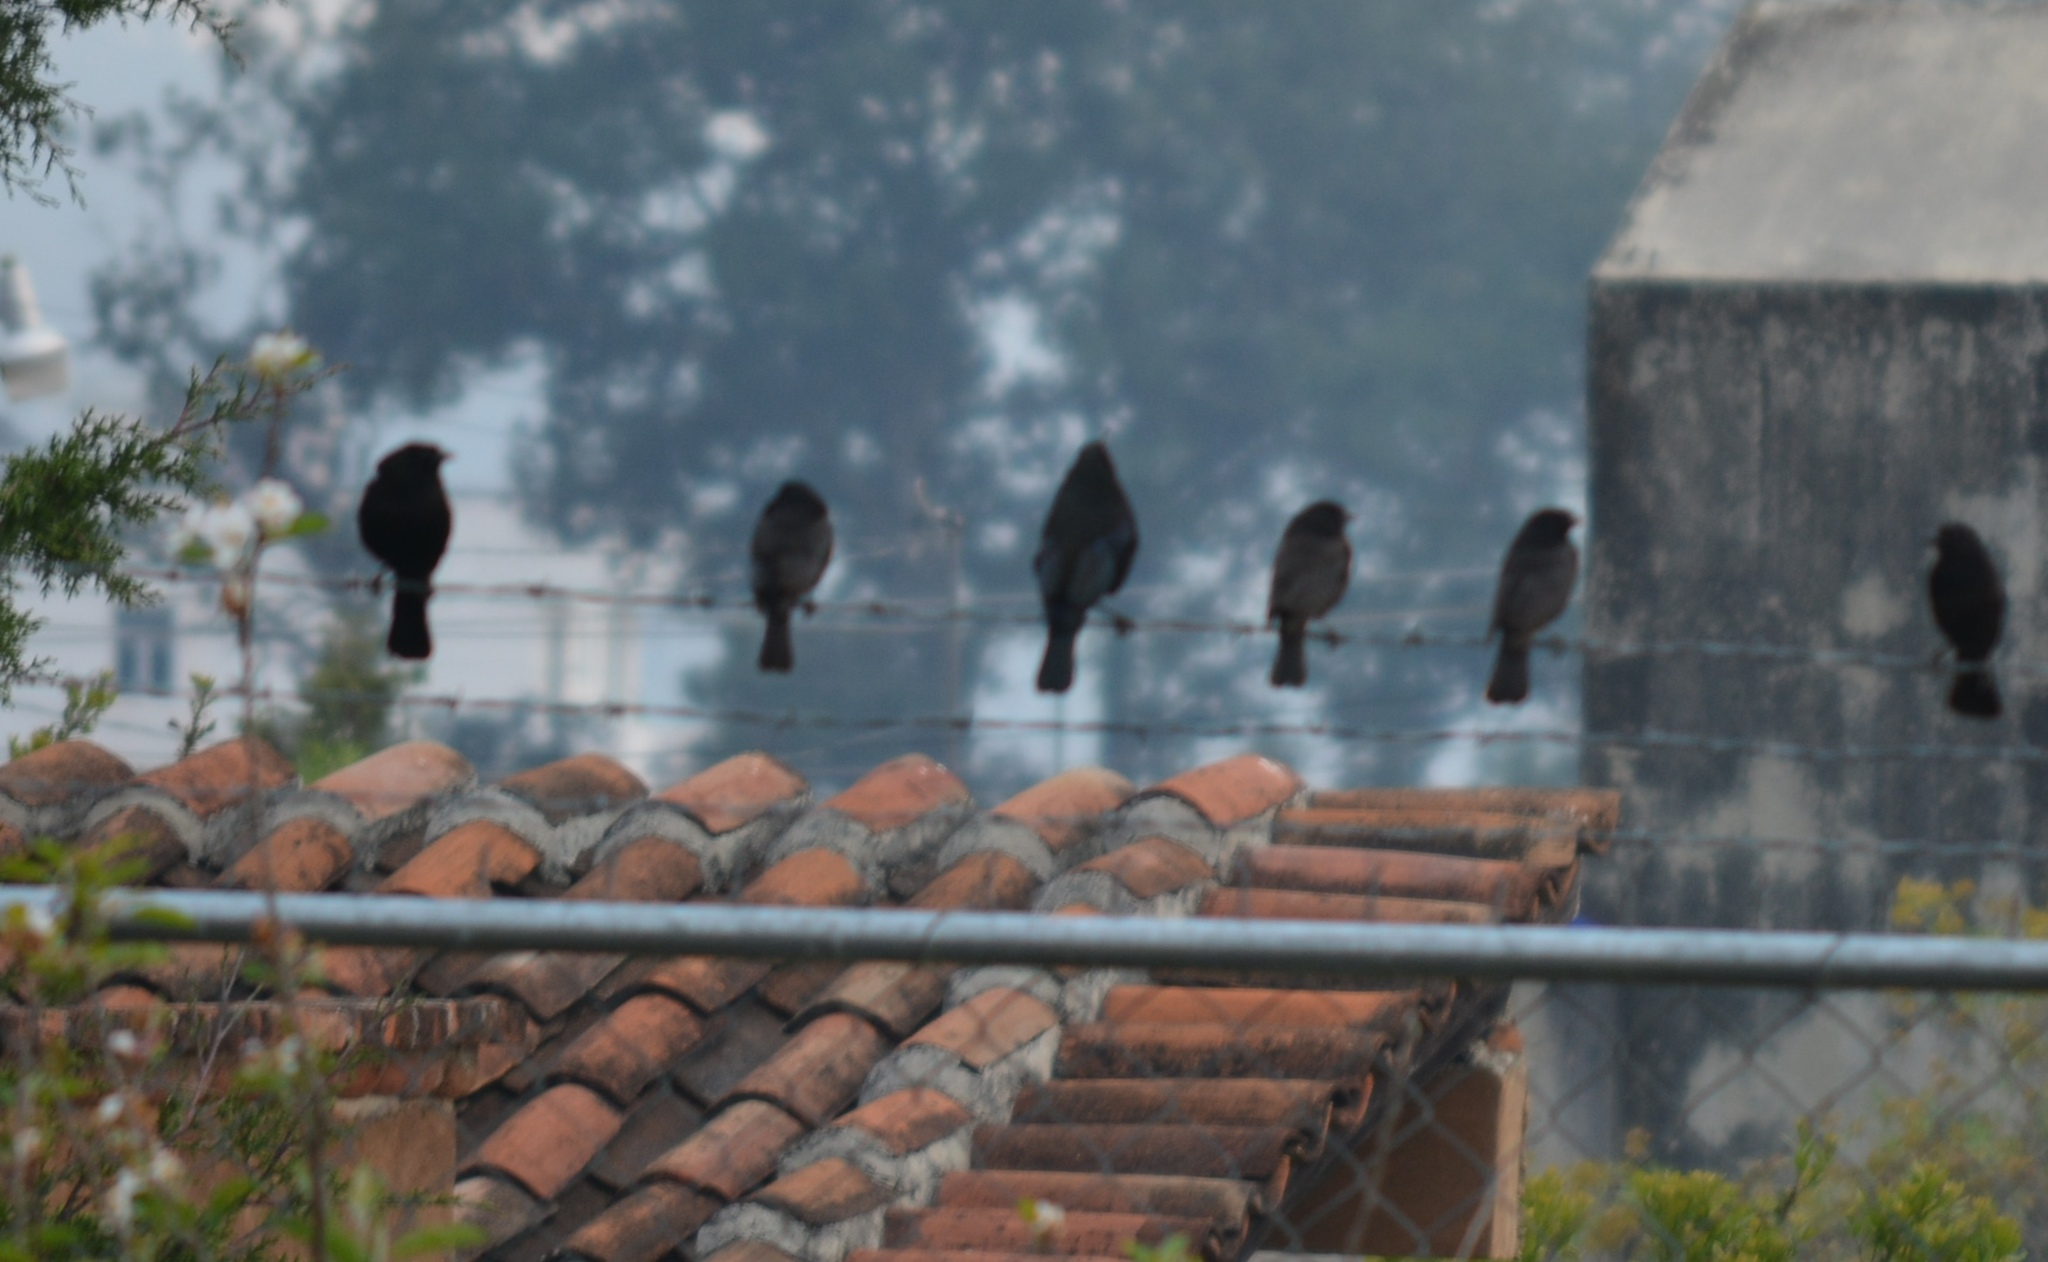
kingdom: Animalia
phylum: Chordata
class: Aves
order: Passeriformes
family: Icteridae
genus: Molothrus
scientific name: Molothrus aeneus
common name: Bronzed cowbird
